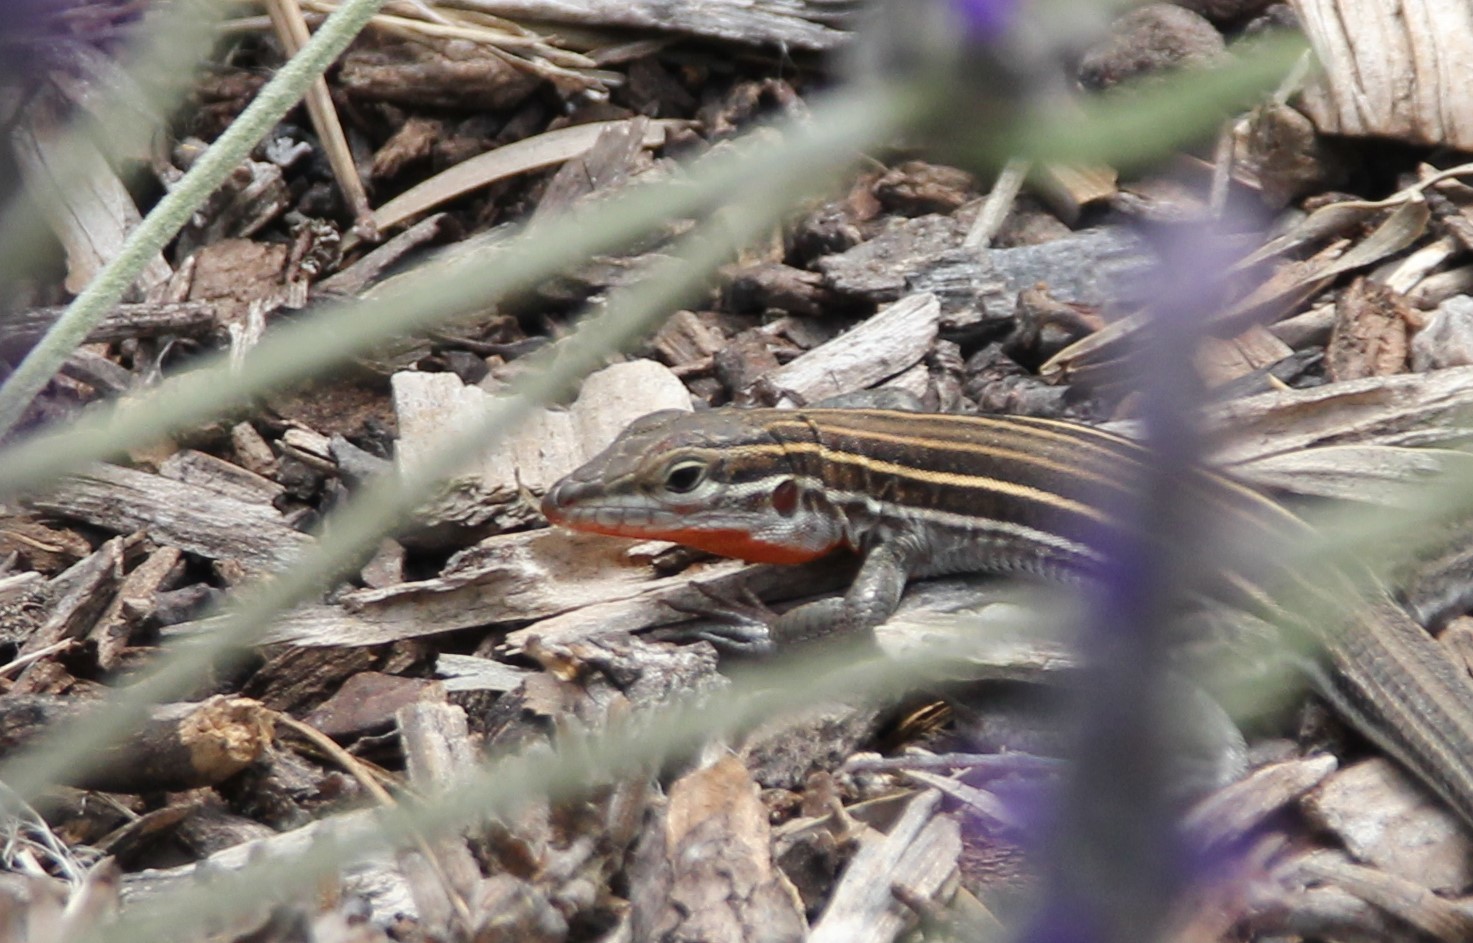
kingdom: Animalia
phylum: Chordata
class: Squamata
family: Teiidae
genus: Aspidoscelis
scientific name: Aspidoscelis hyperythrus
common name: Orange-throated race-runner
